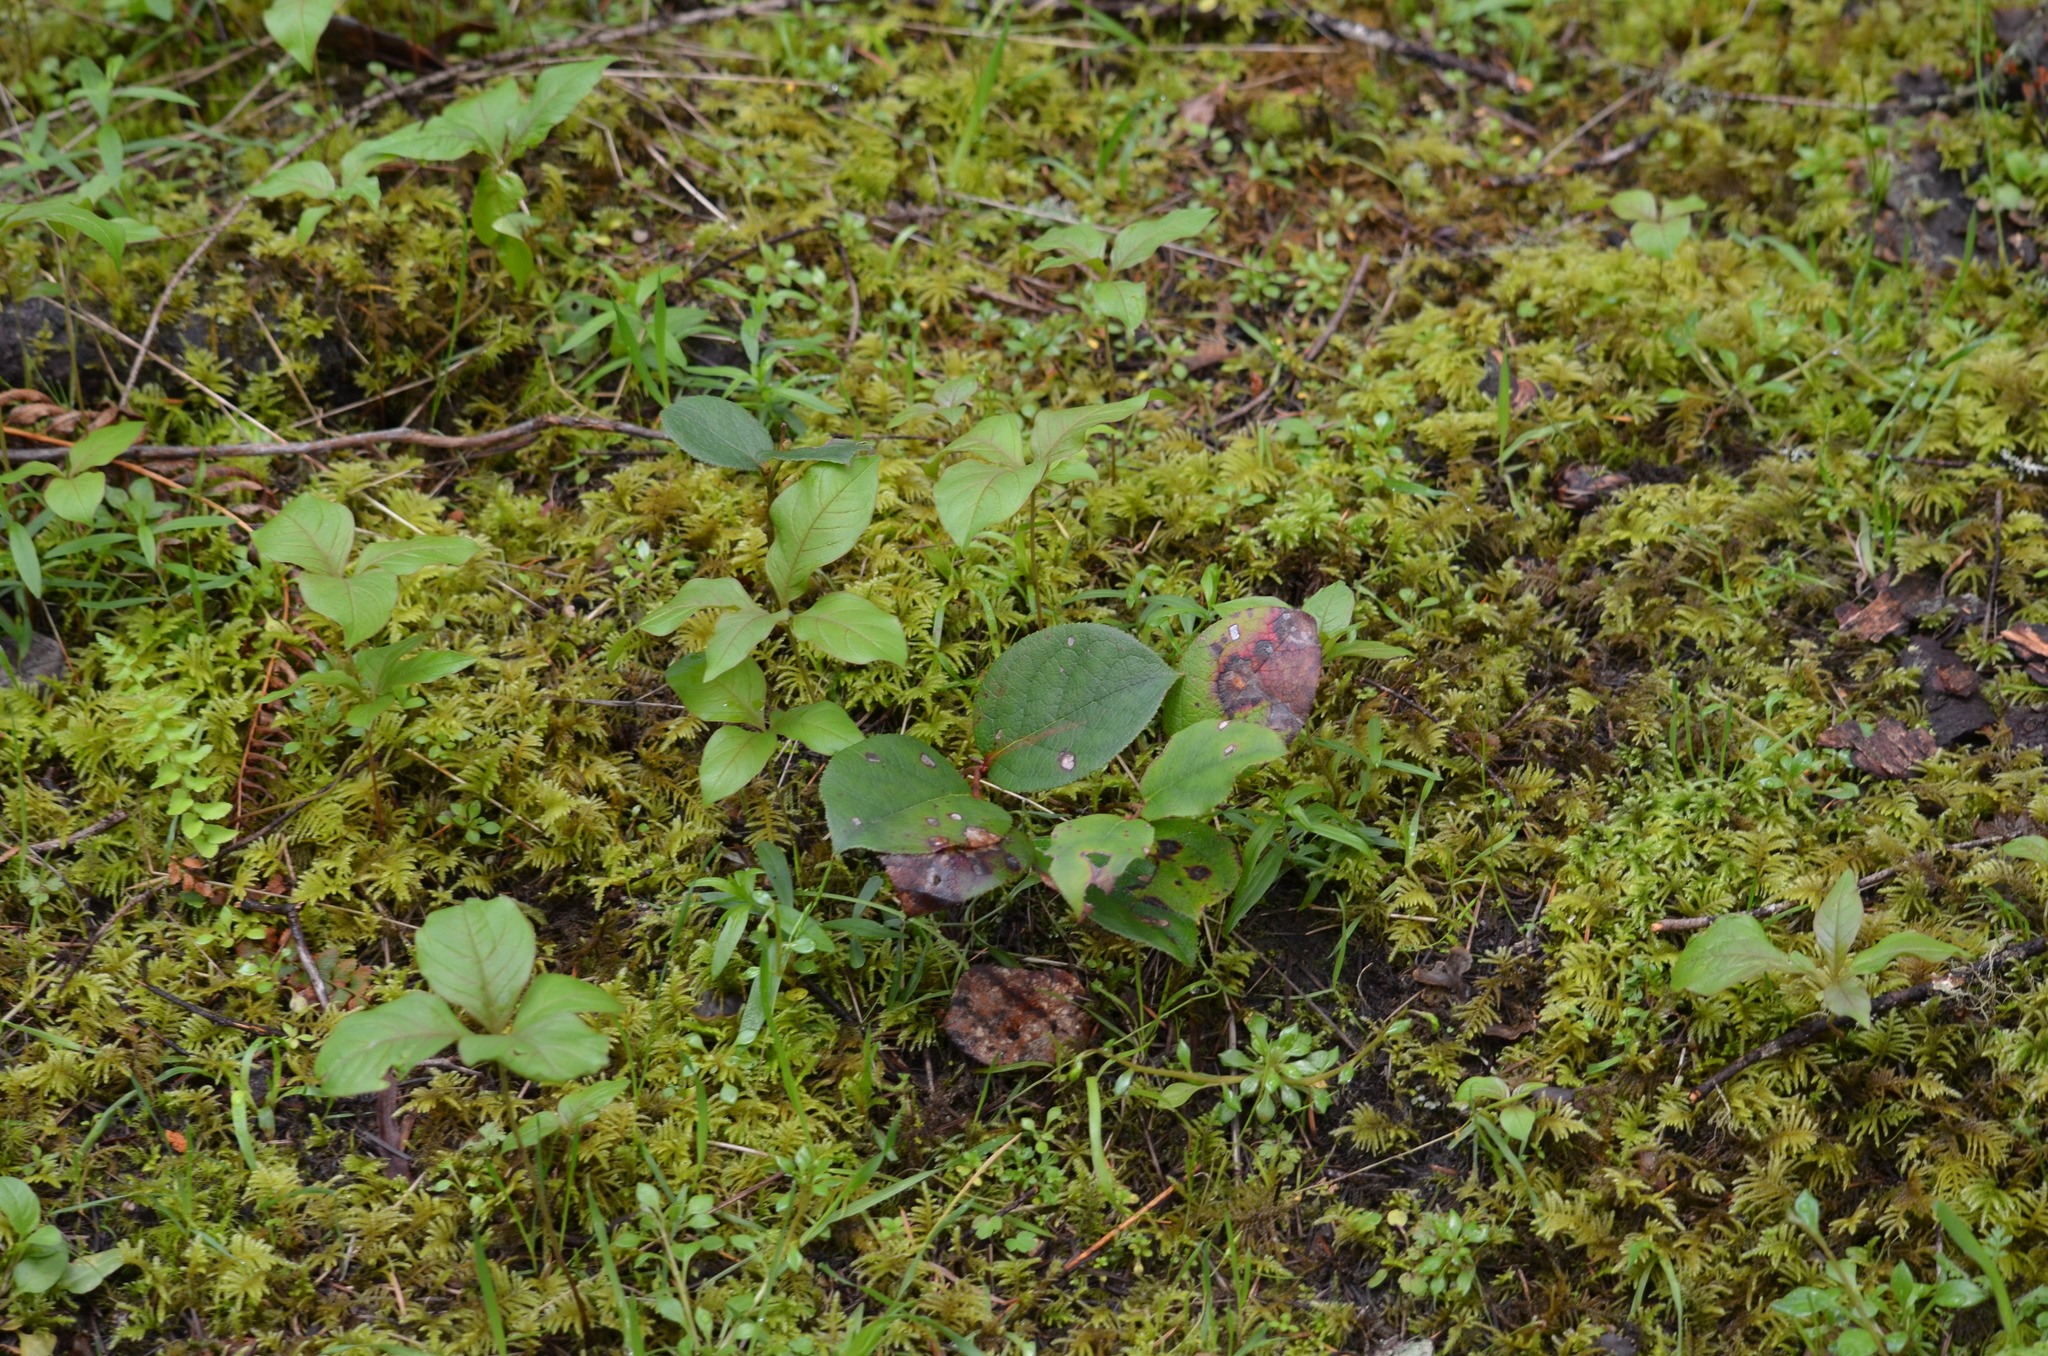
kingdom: Plantae
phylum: Tracheophyta
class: Magnoliopsida
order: Ericales
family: Ericaceae
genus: Gaultheria
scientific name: Gaultheria shallon
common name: Shallon
